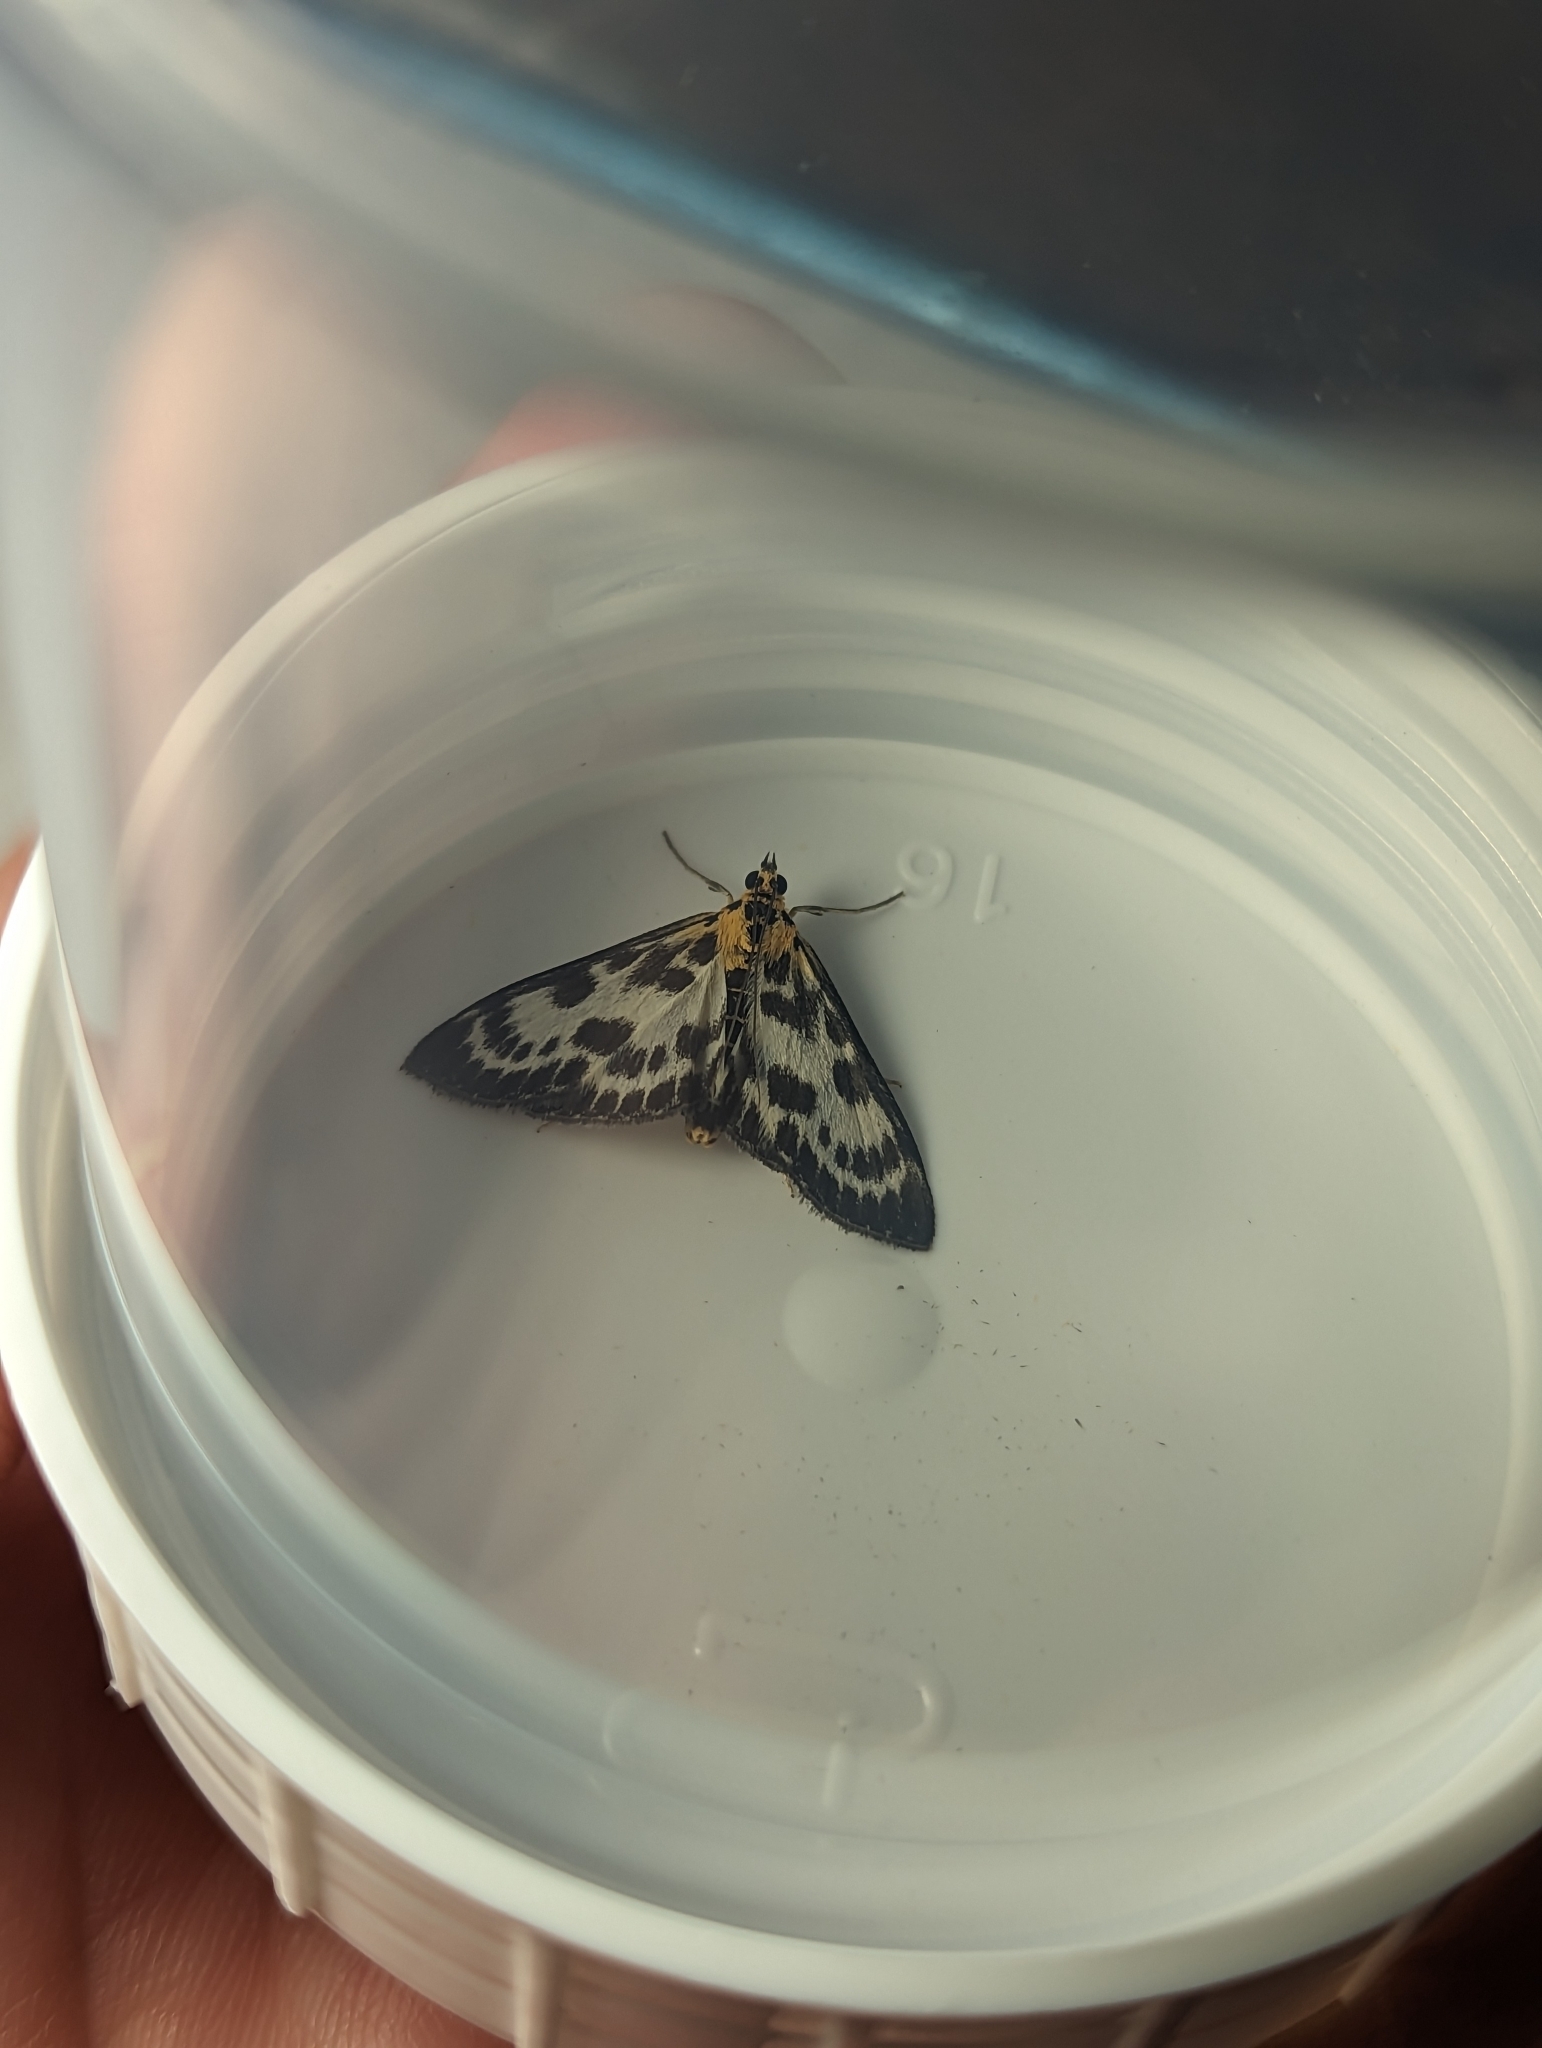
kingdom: Animalia
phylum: Arthropoda
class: Insecta
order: Lepidoptera
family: Crambidae
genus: Anania
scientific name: Anania hortulata
